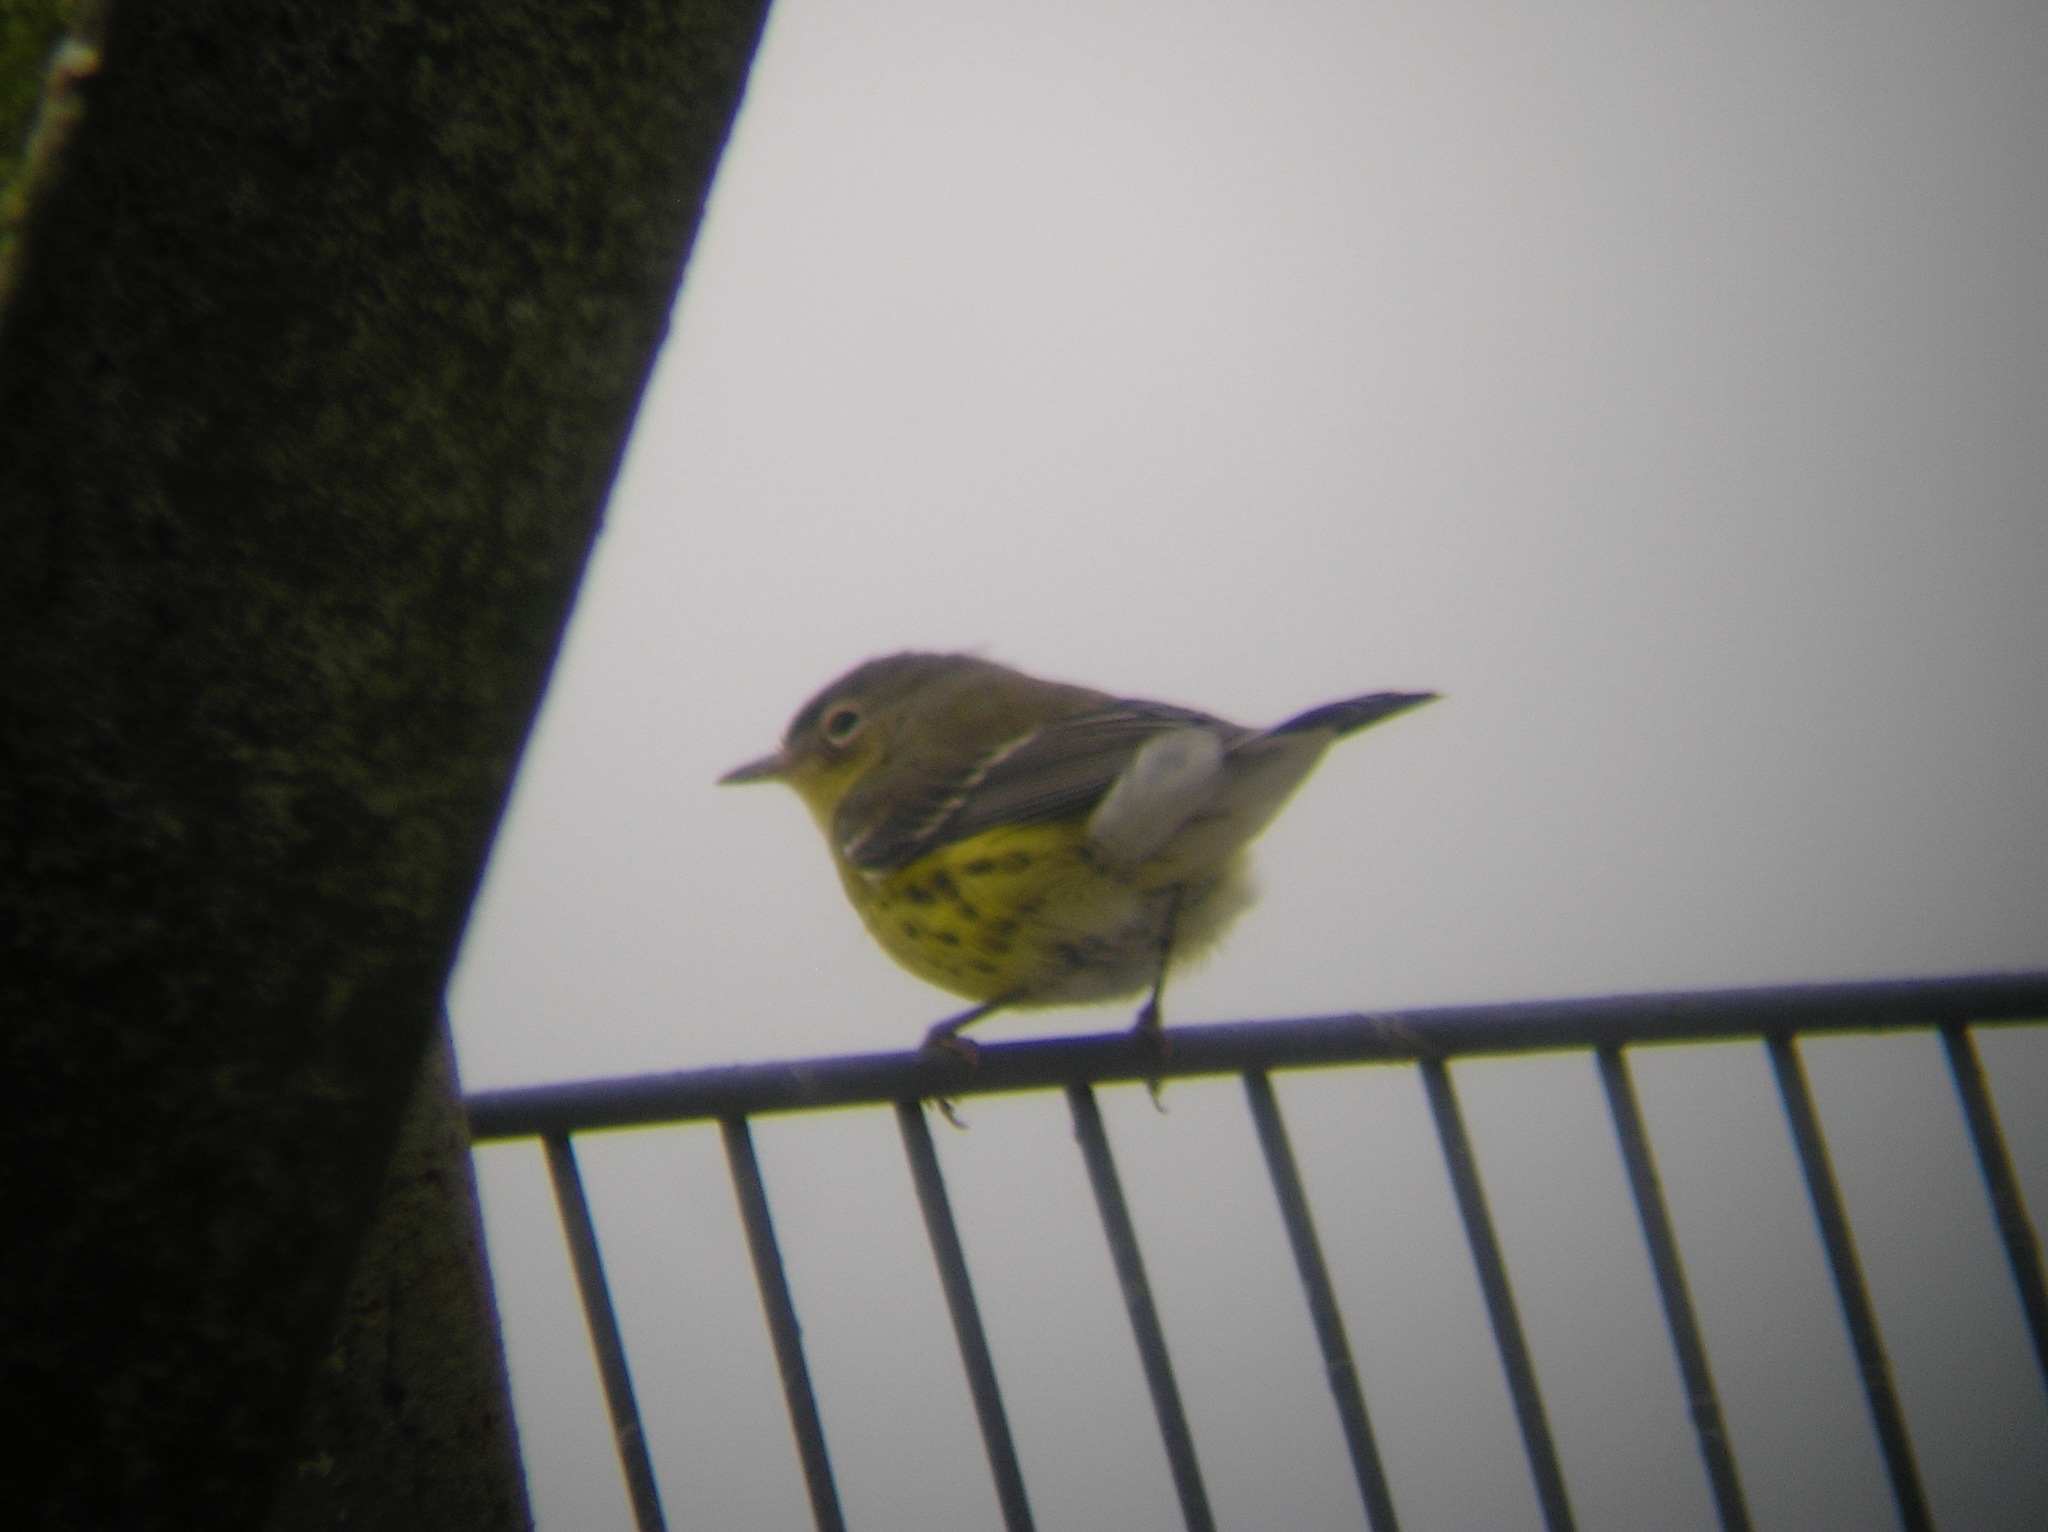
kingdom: Animalia
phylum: Chordata
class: Aves
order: Passeriformes
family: Parulidae
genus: Setophaga
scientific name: Setophaga magnolia
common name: Magnolia warbler
